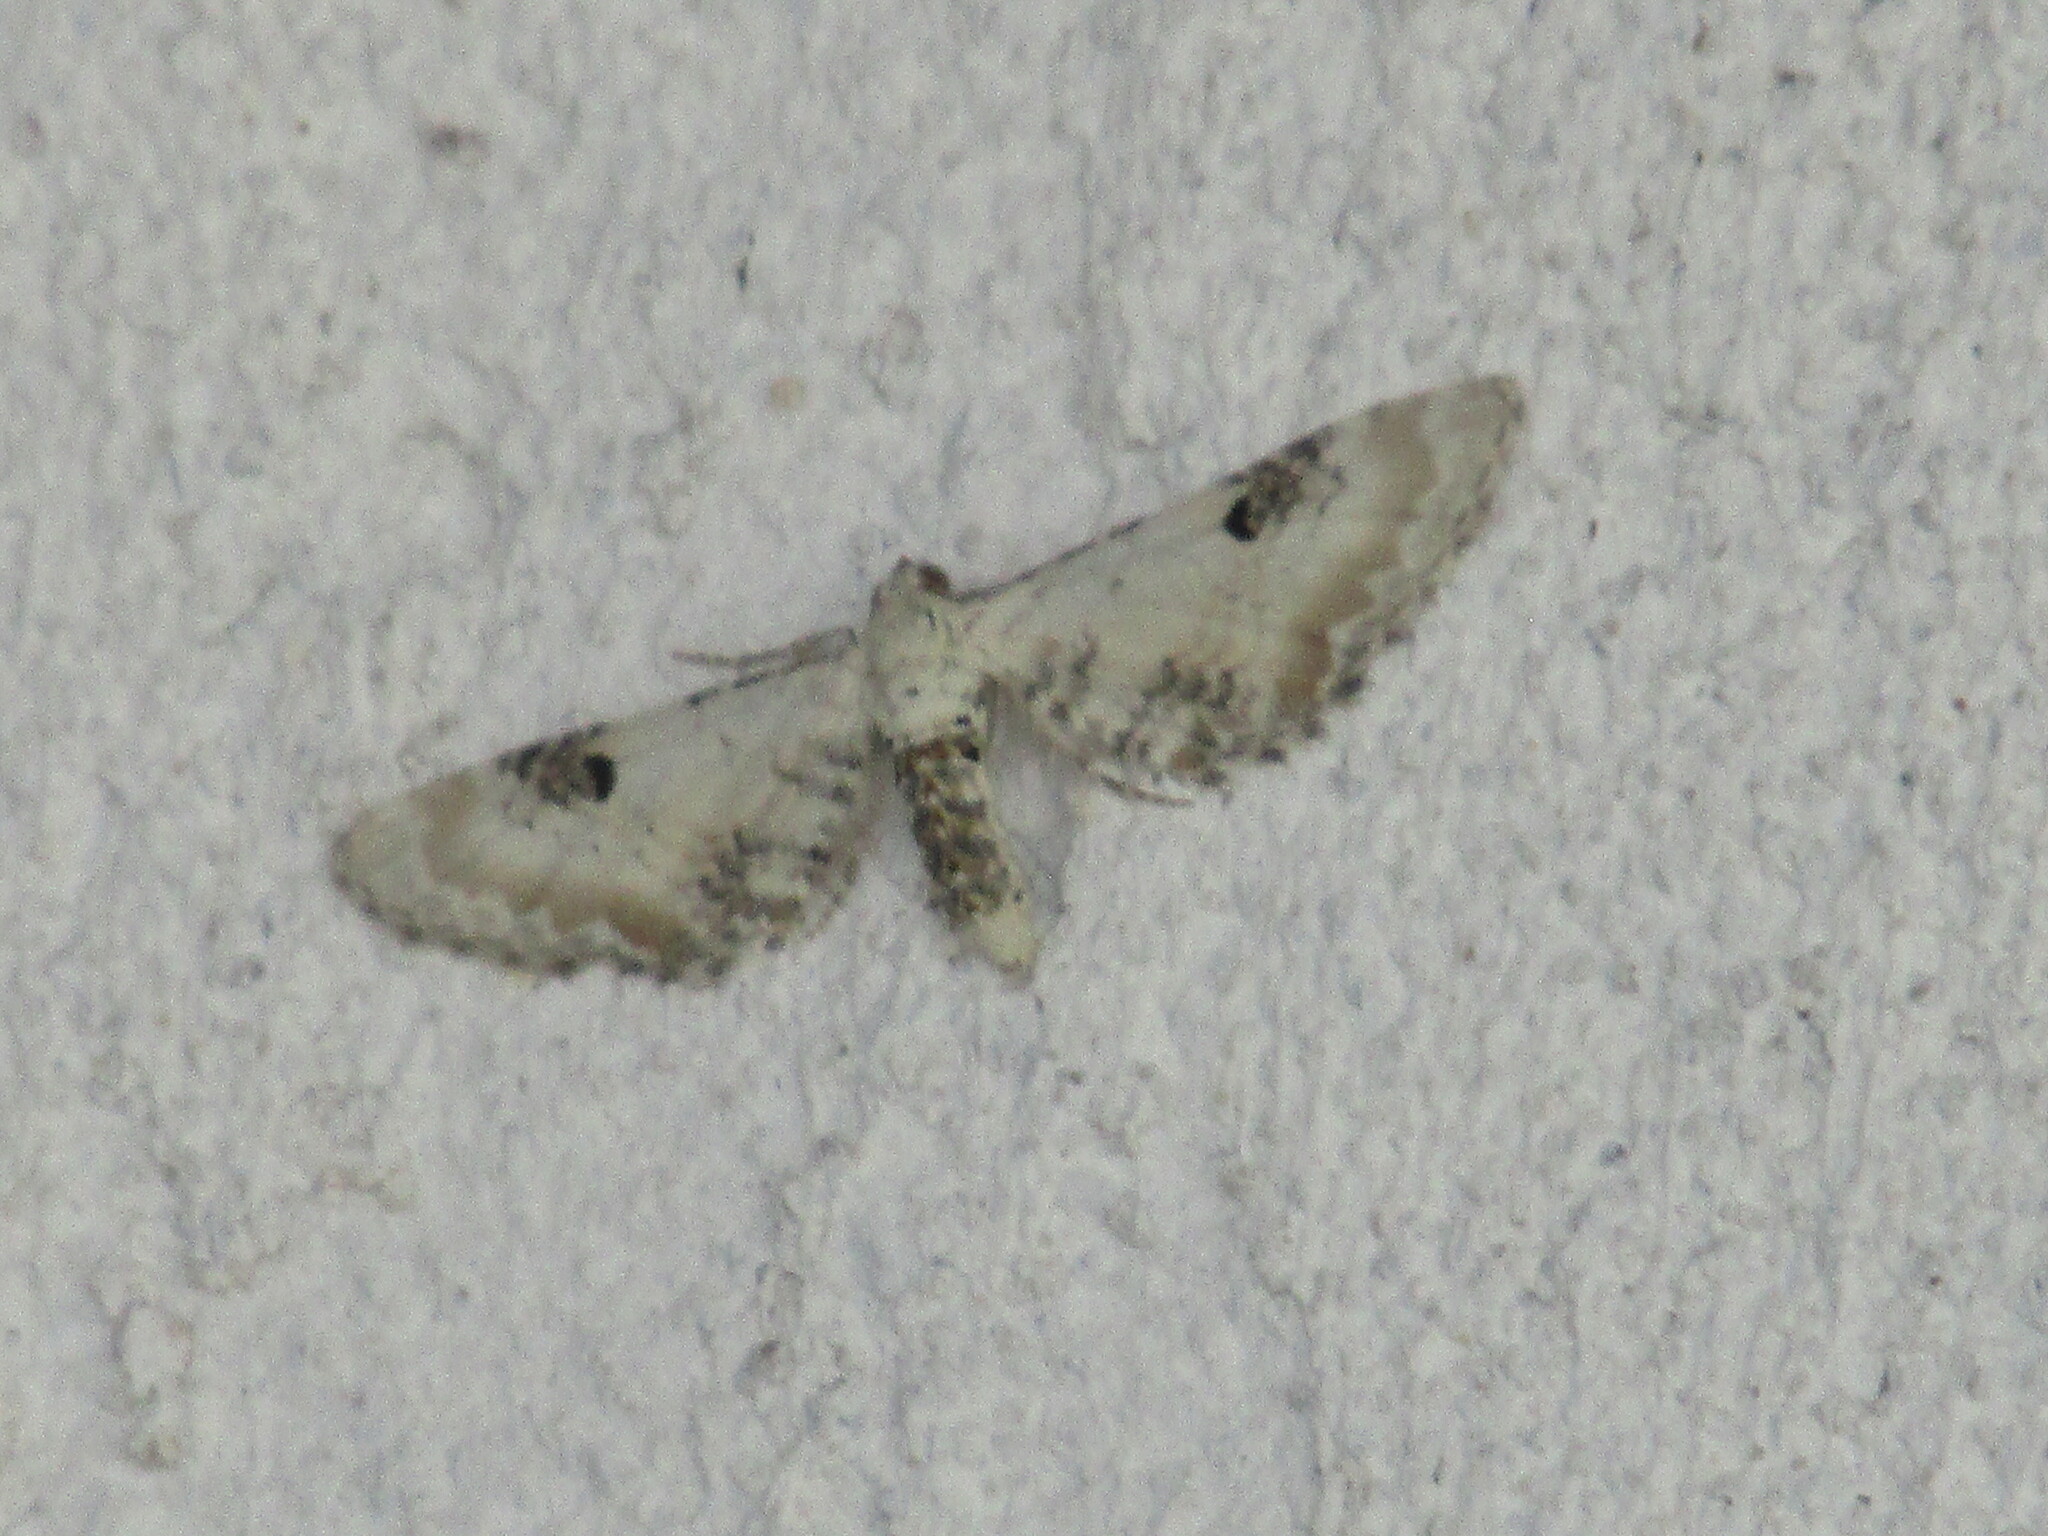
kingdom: Animalia
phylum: Arthropoda
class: Insecta
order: Lepidoptera
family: Geometridae
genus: Eupithecia
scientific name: Eupithecia centaureata
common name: Lime-speck pug
